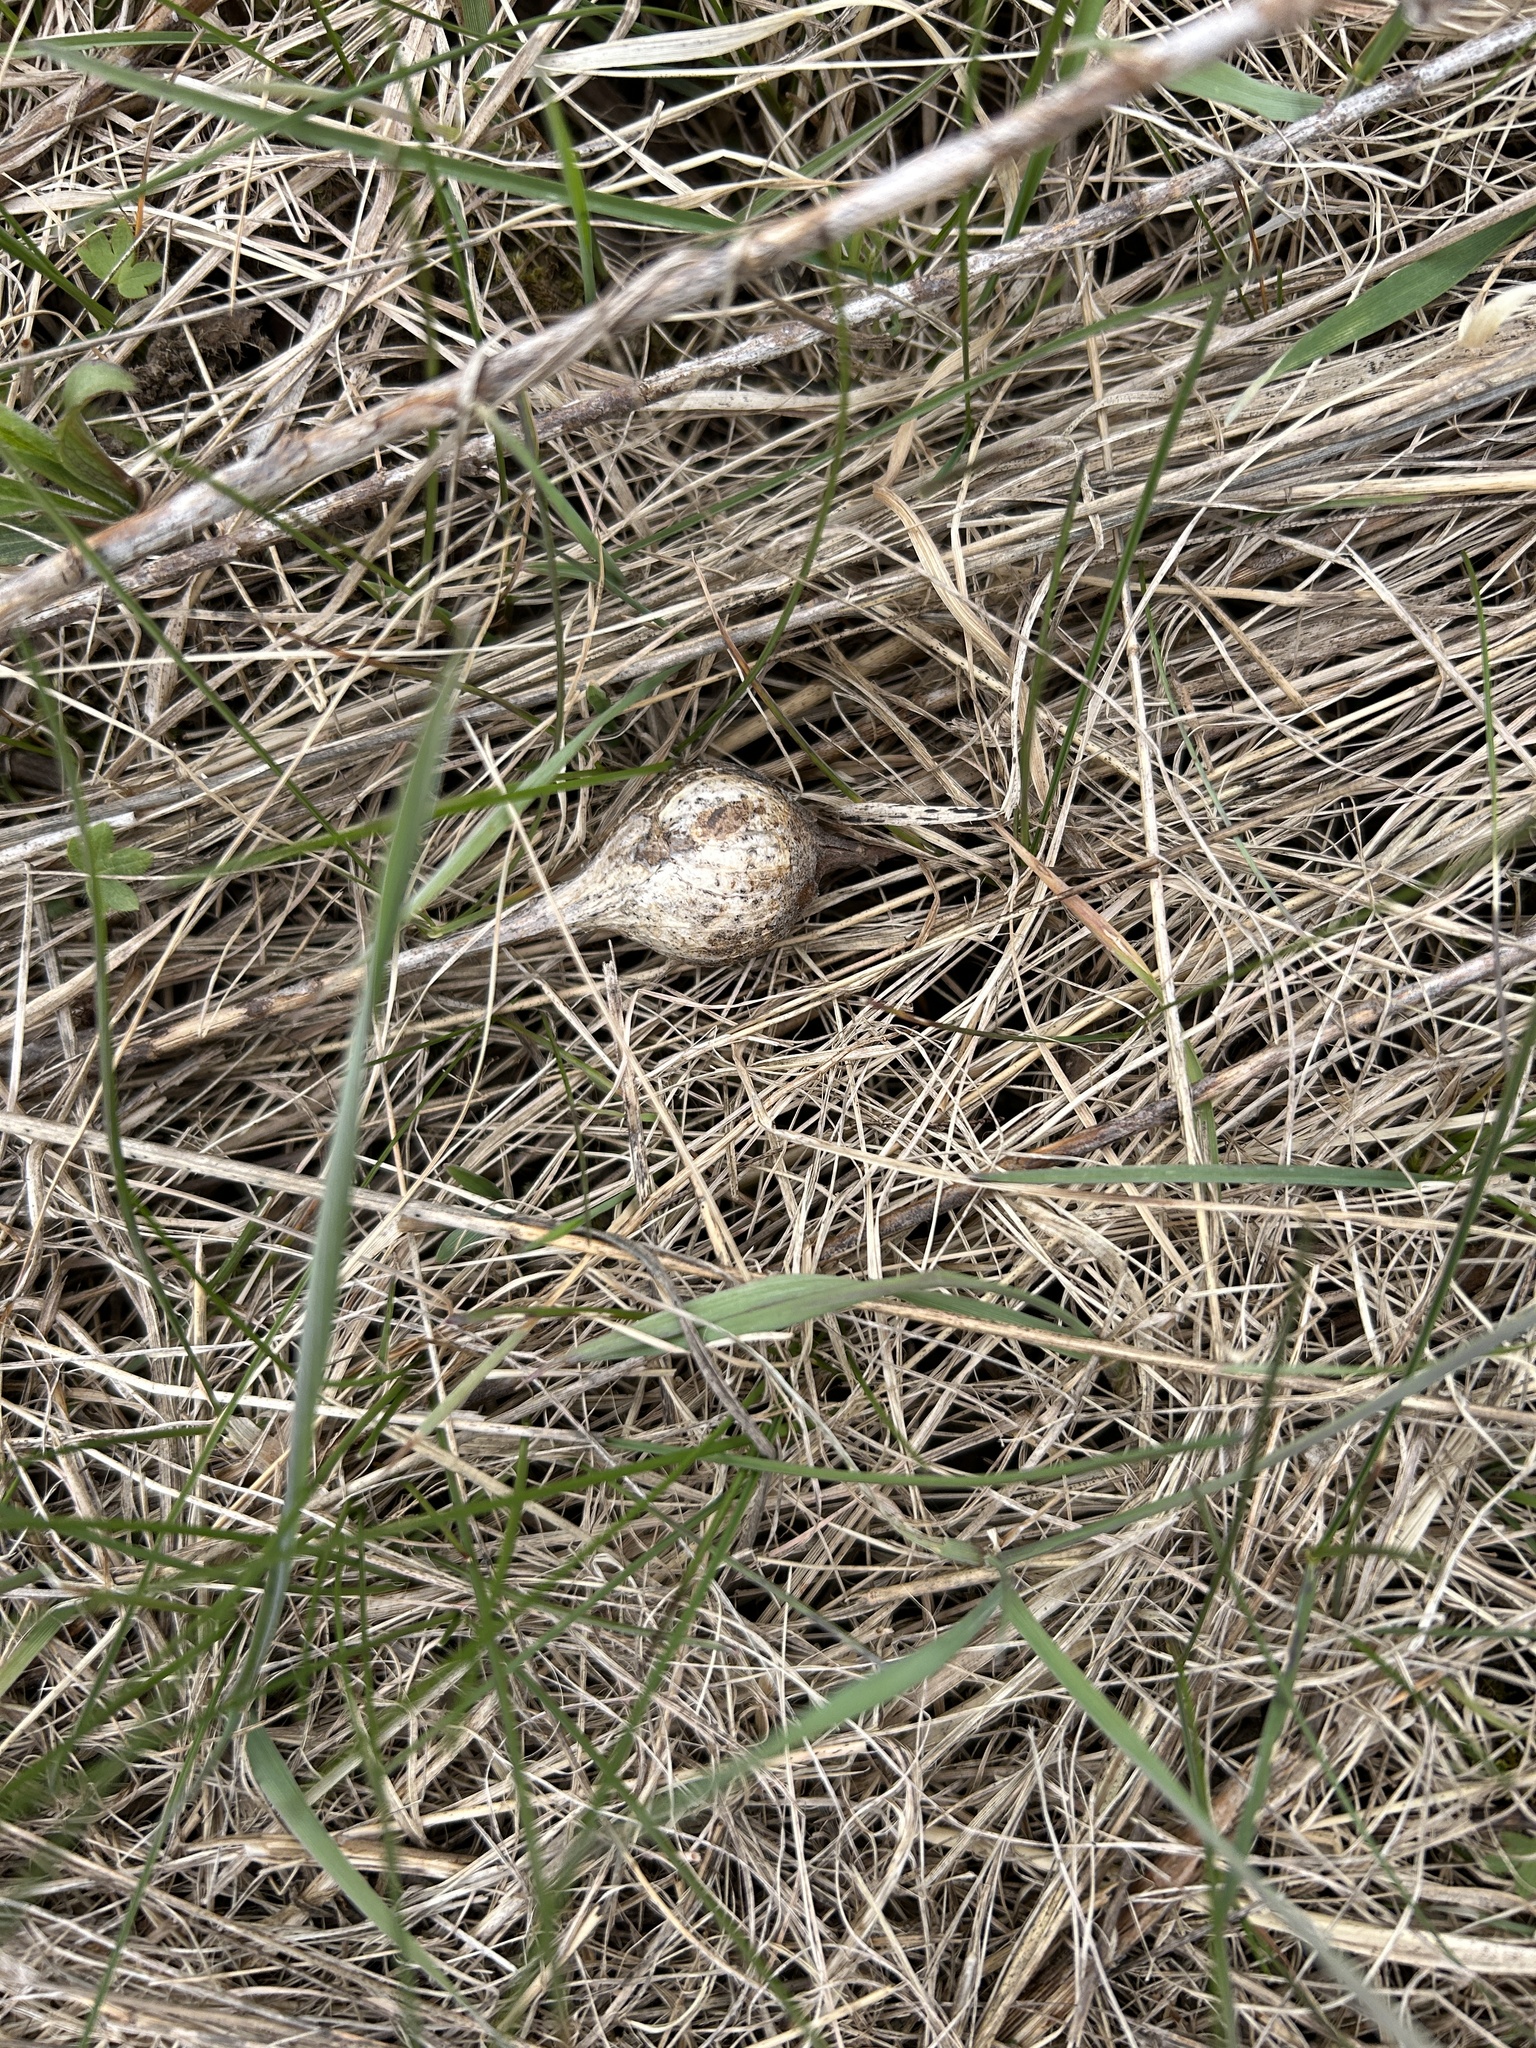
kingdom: Animalia
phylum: Arthropoda
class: Insecta
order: Diptera
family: Tephritidae
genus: Eurosta
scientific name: Eurosta solidaginis
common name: Goldenrod gall fly
